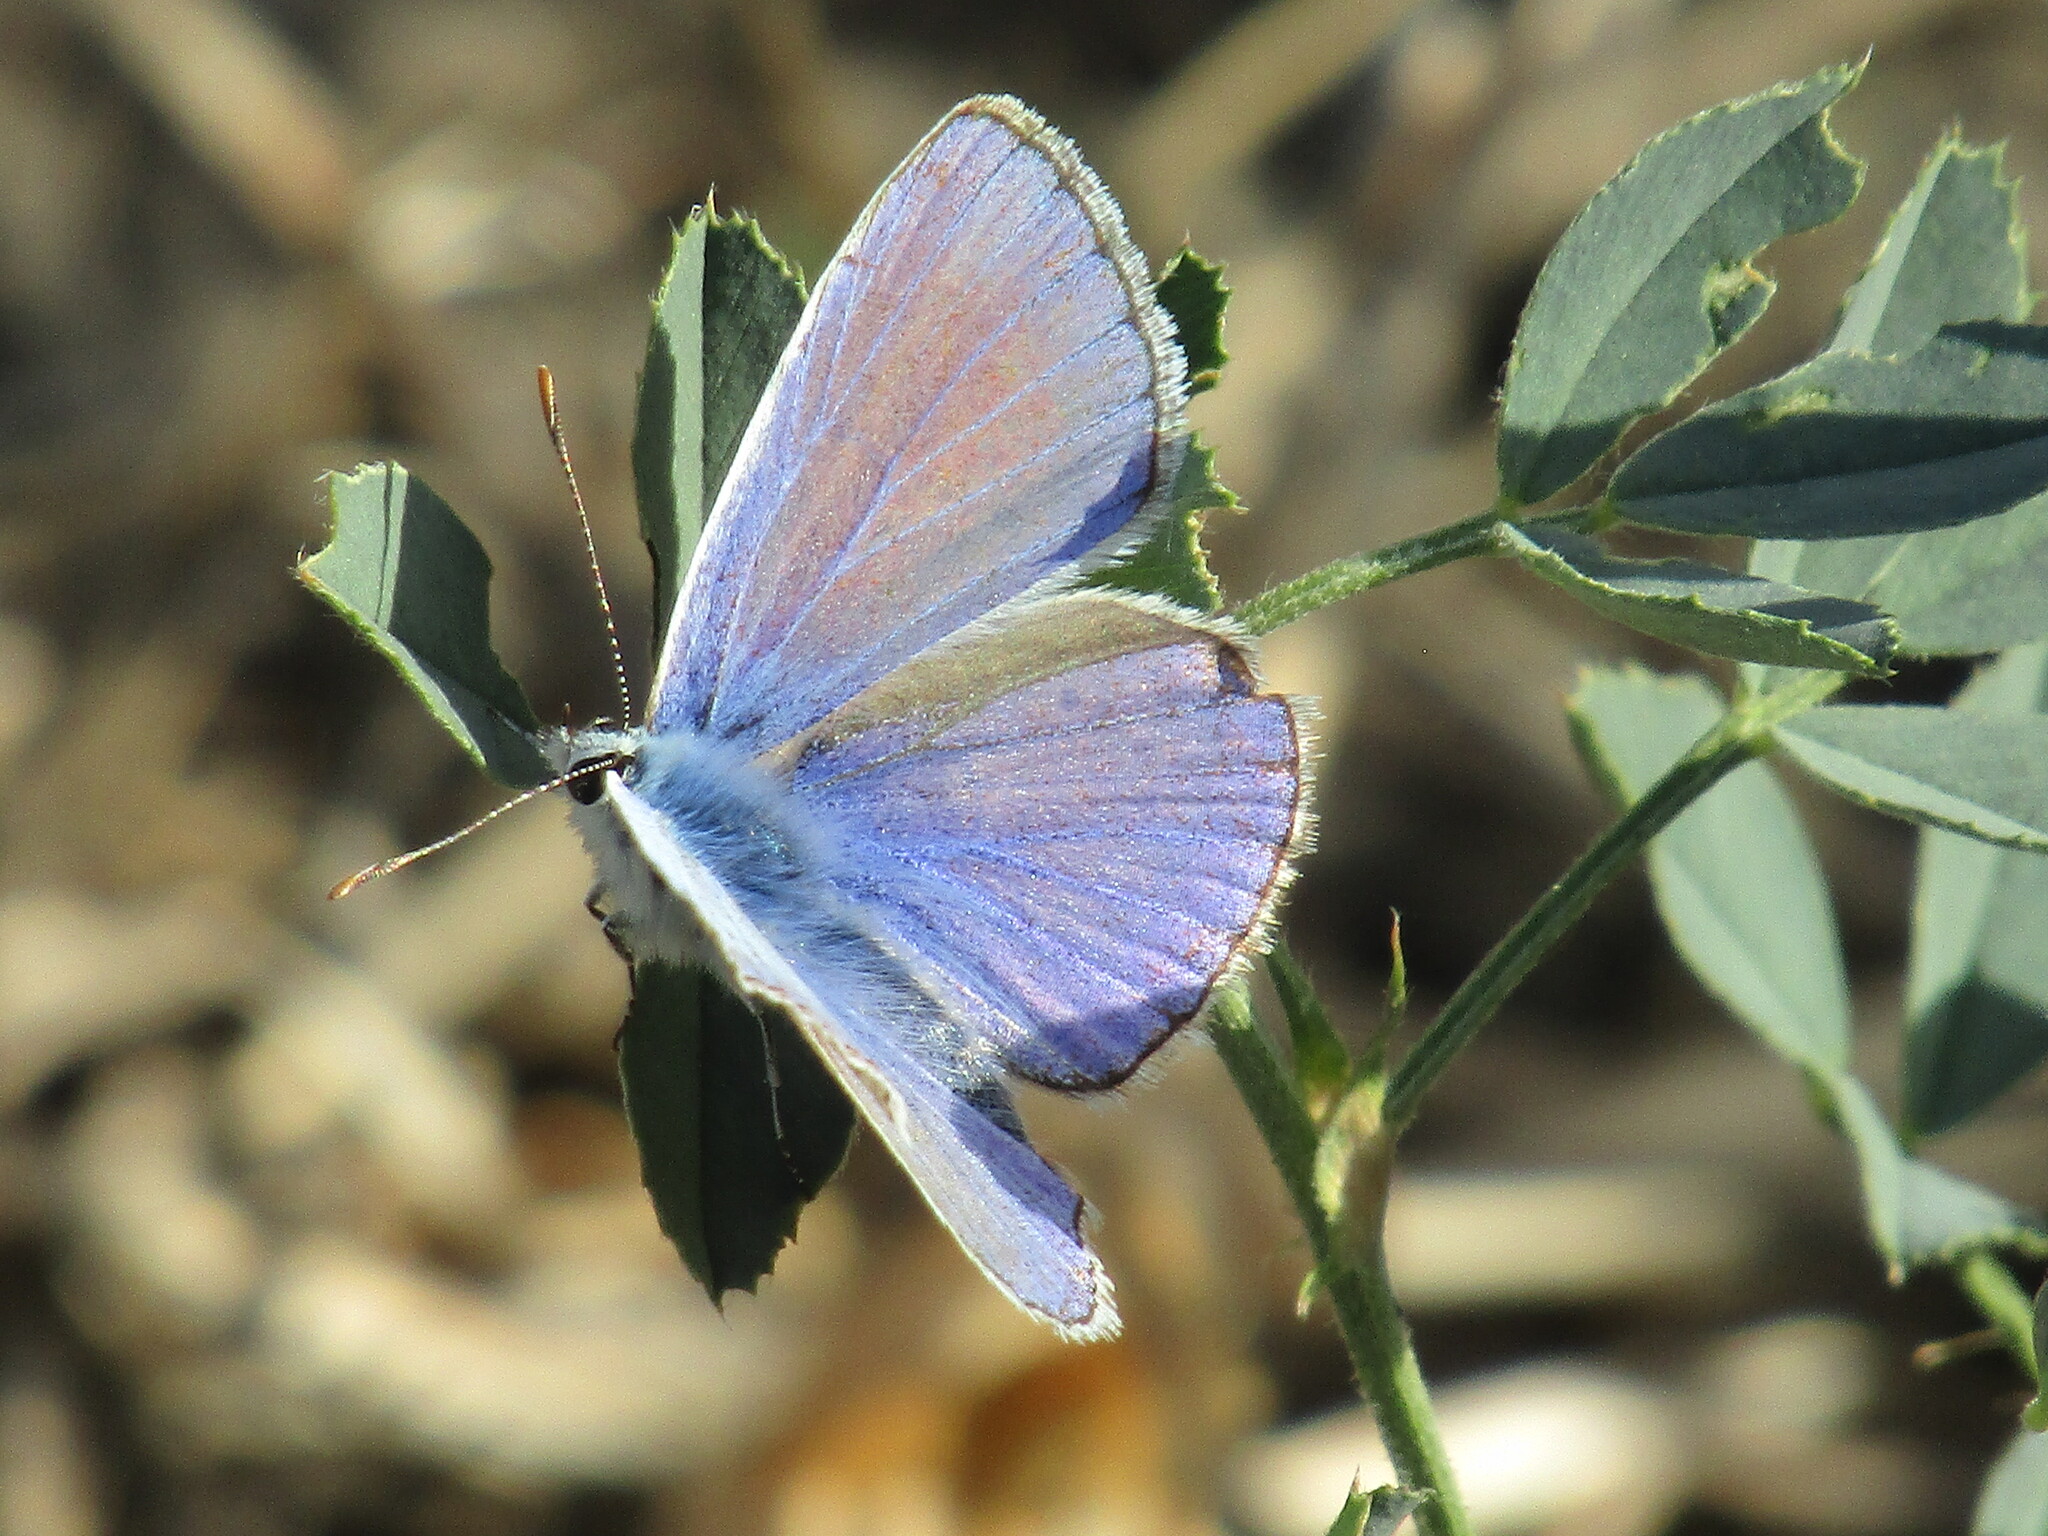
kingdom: Animalia
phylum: Arthropoda
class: Insecta
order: Lepidoptera
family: Lycaenidae
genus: Polyommatus
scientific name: Polyommatus icarus
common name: Common blue
